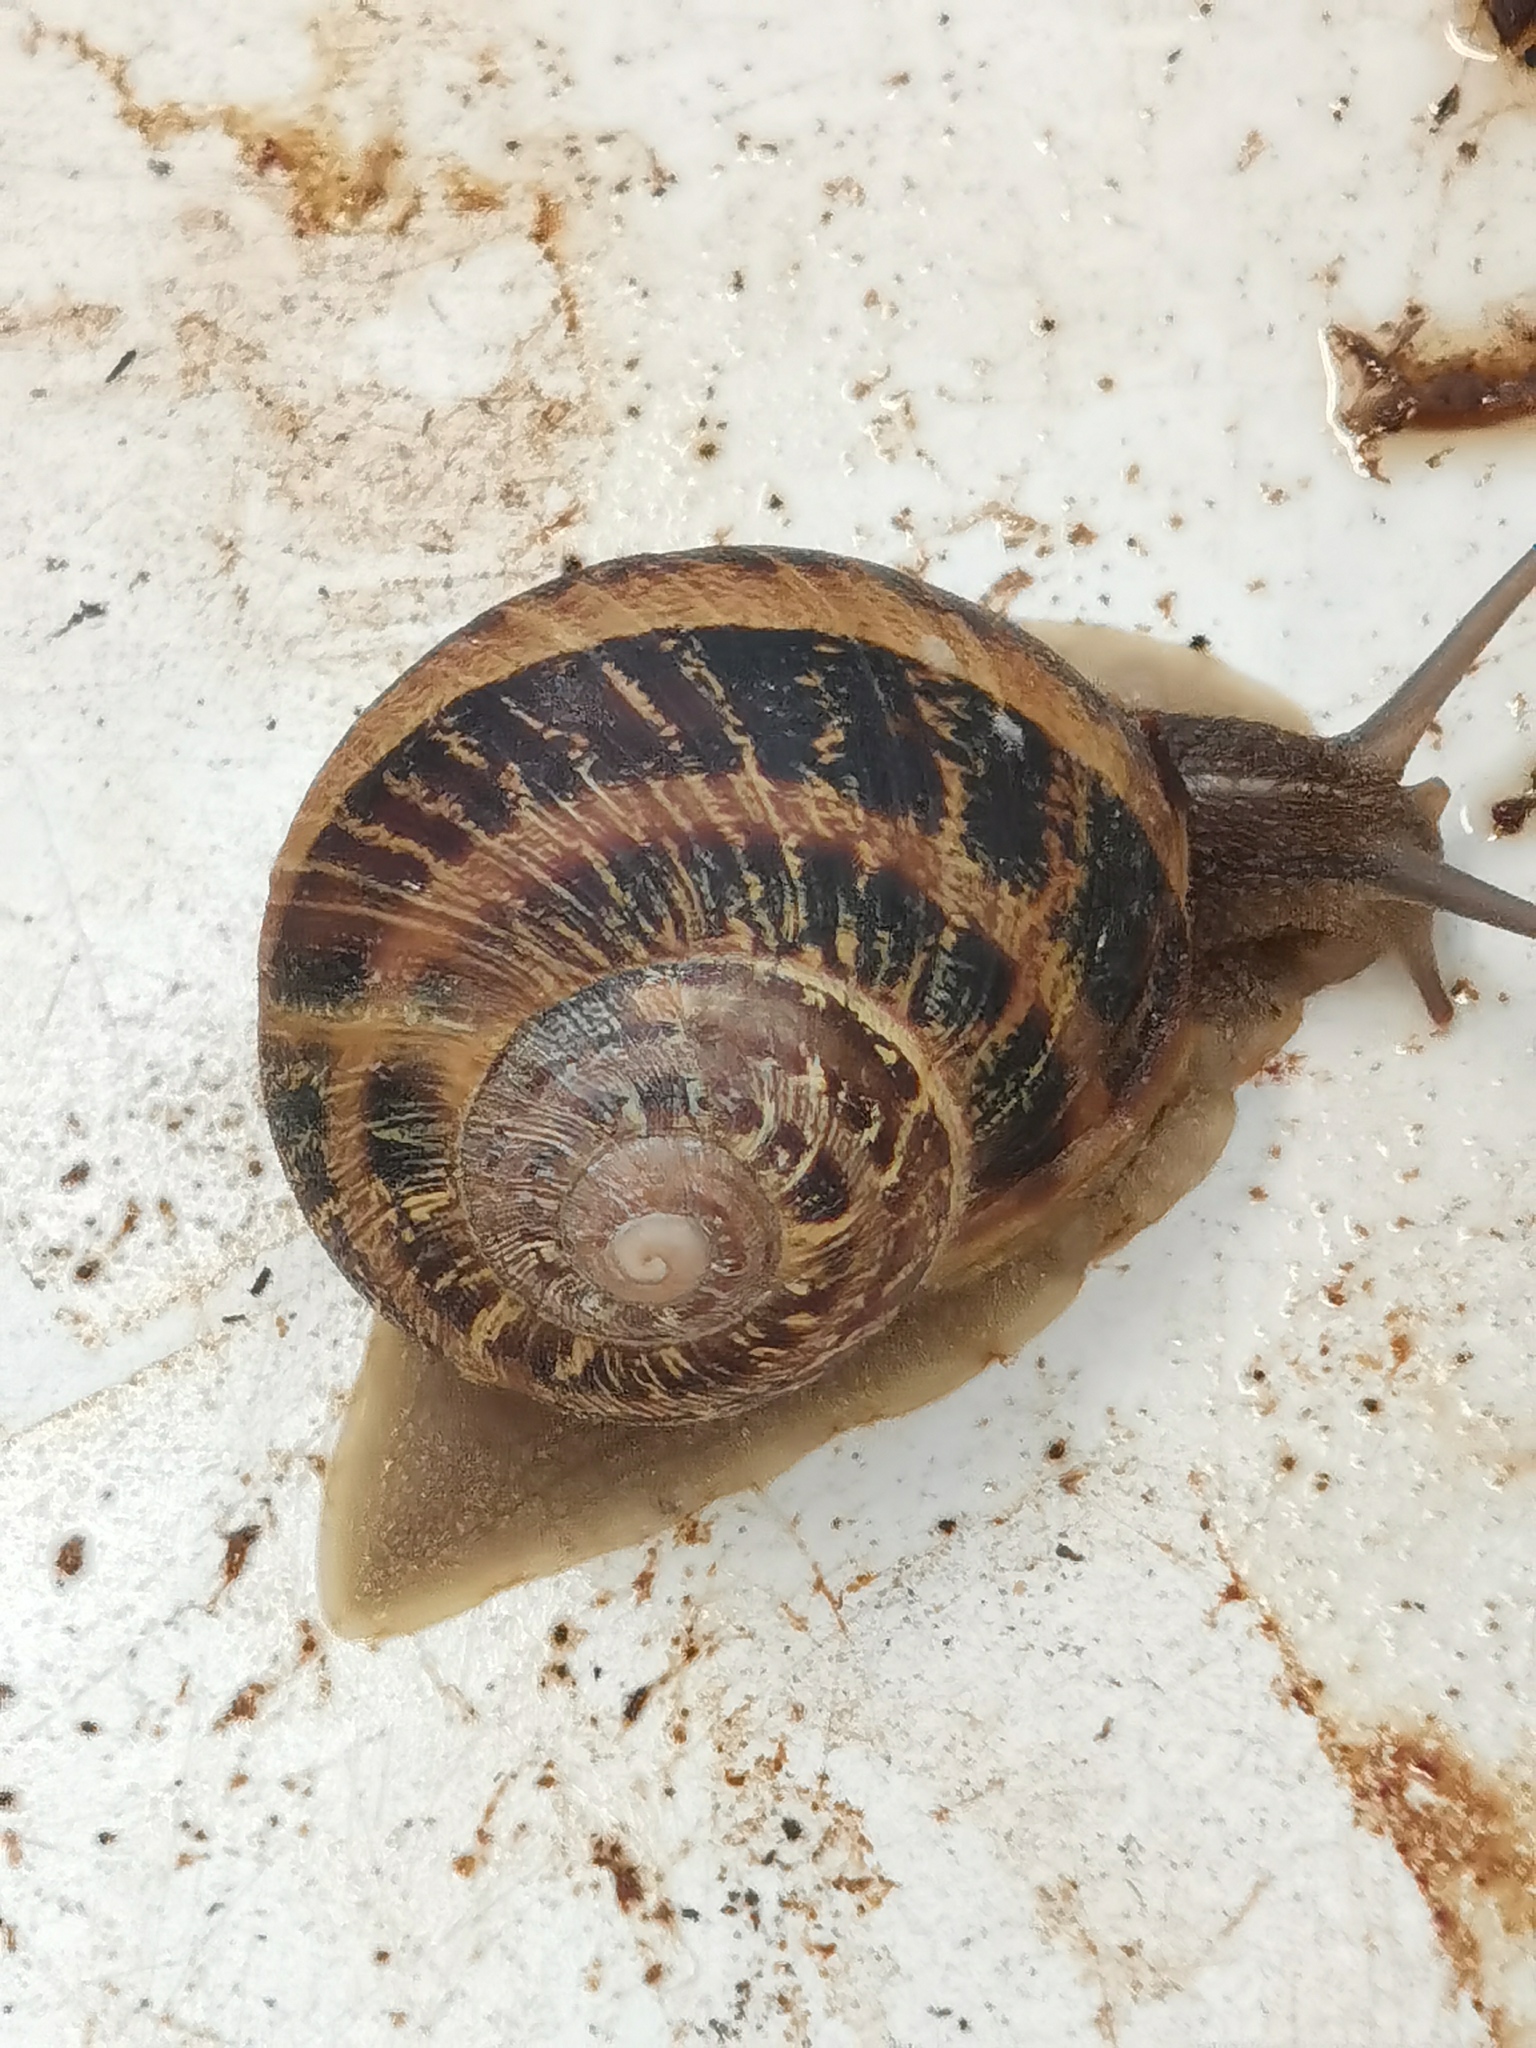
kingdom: Animalia
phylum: Mollusca
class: Gastropoda
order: Stylommatophora
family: Helicidae
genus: Cornu
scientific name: Cornu aspersum
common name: Brown garden snail
